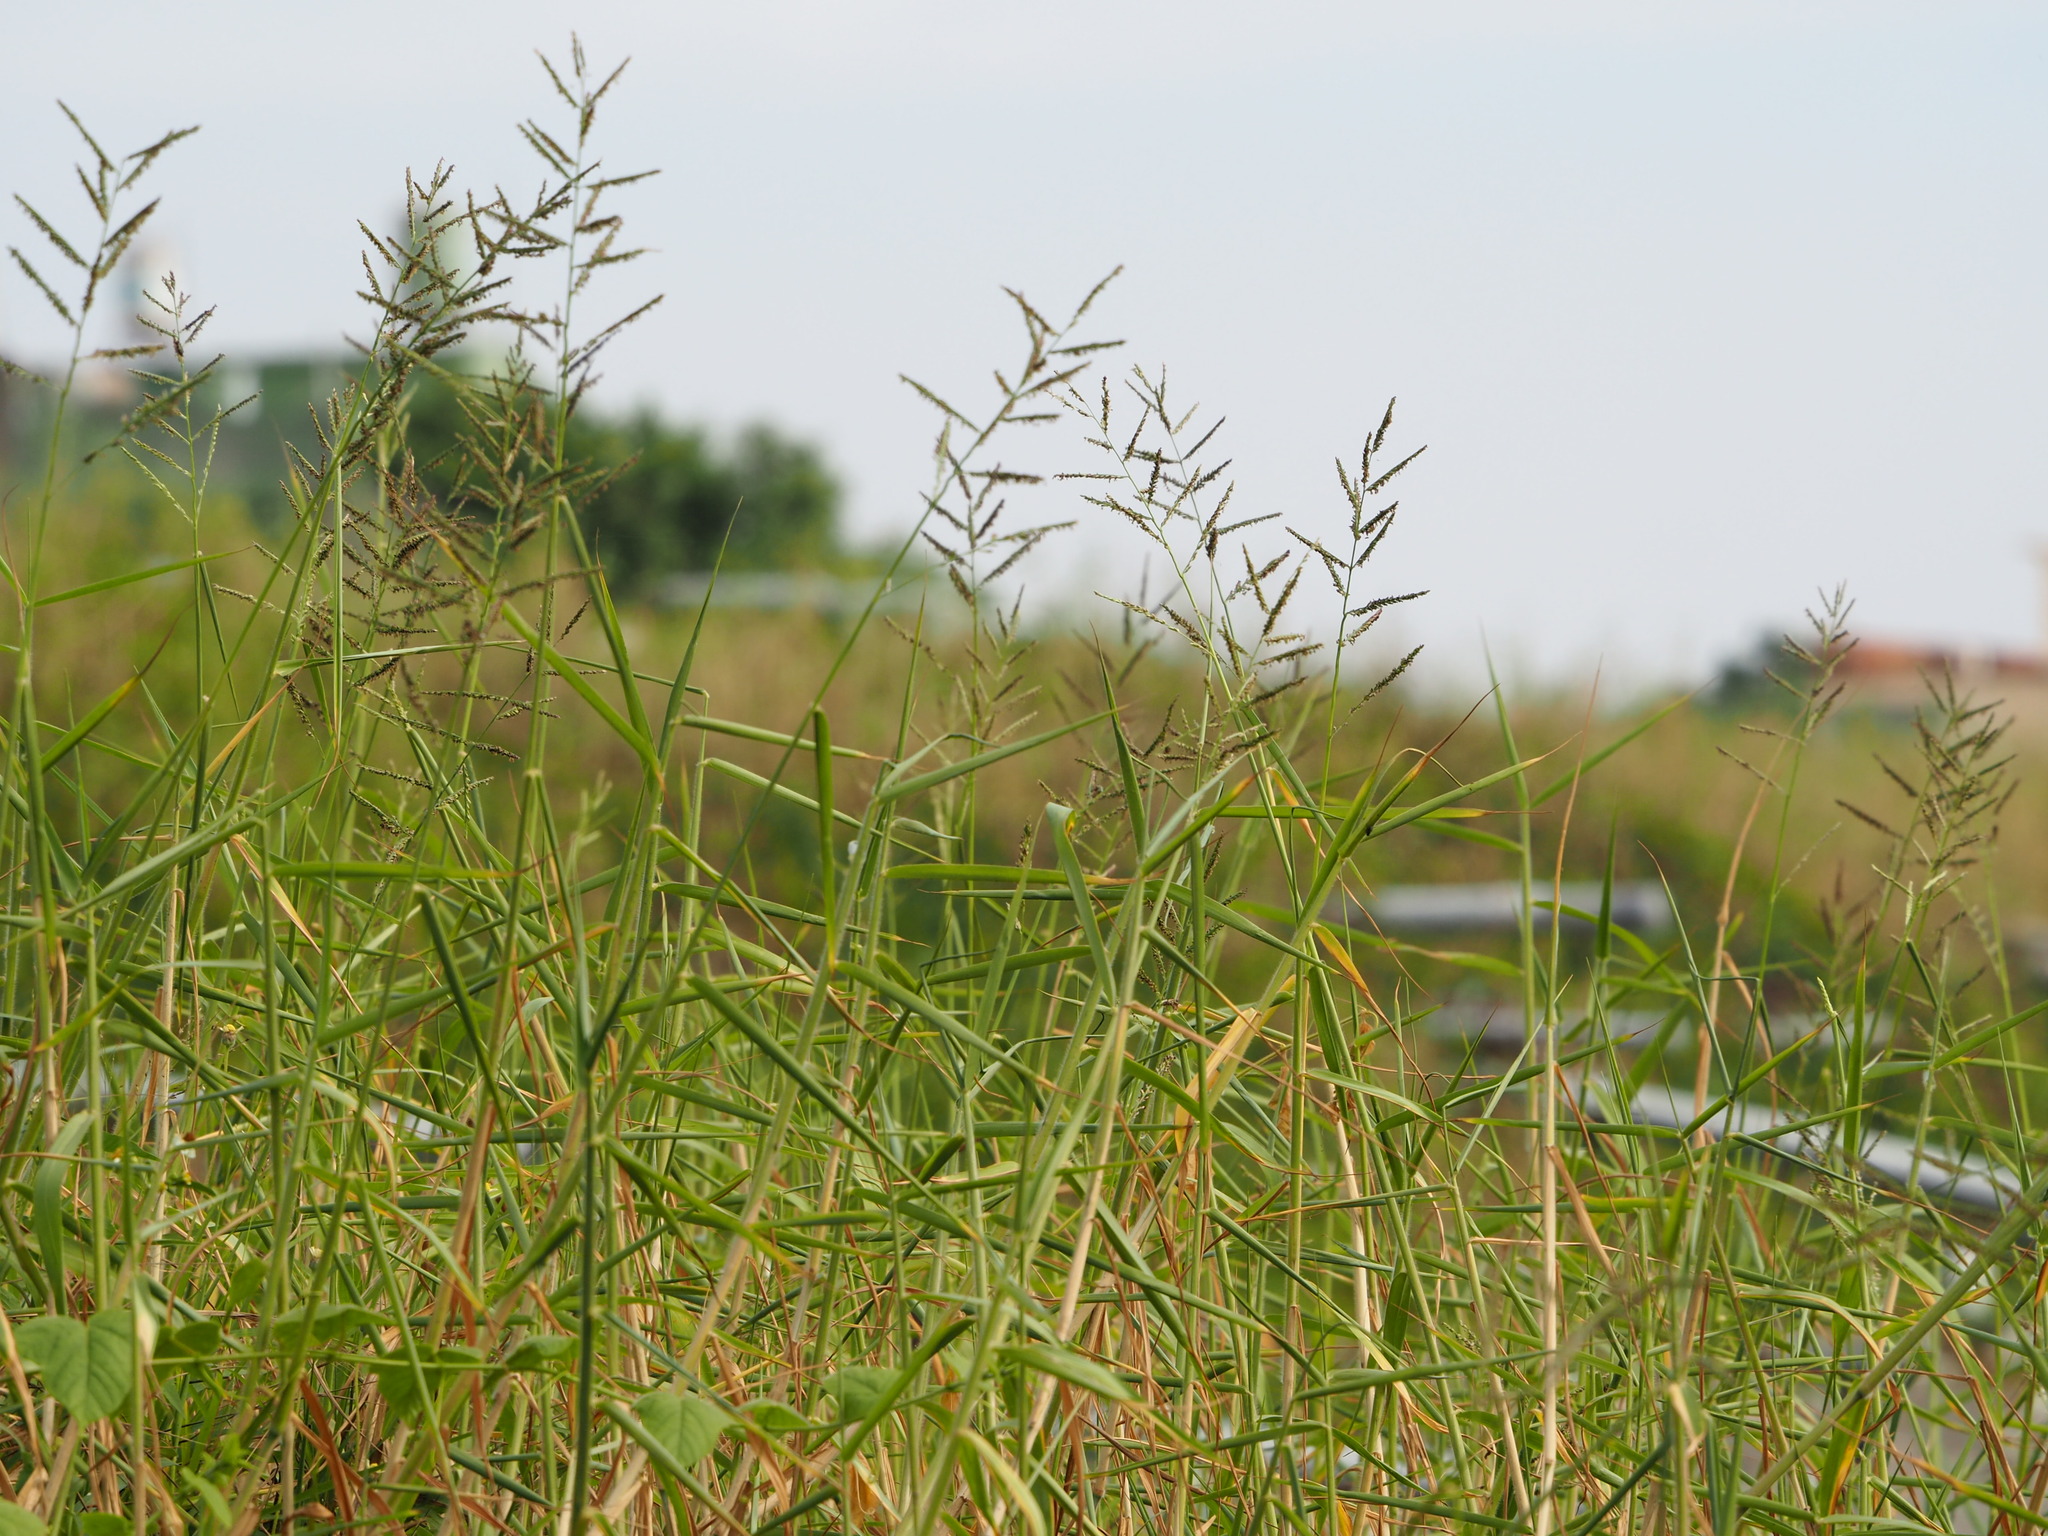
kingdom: Plantae
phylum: Tracheophyta
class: Liliopsida
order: Poales
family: Poaceae
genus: Urochloa
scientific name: Urochloa mutica
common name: Para grass
